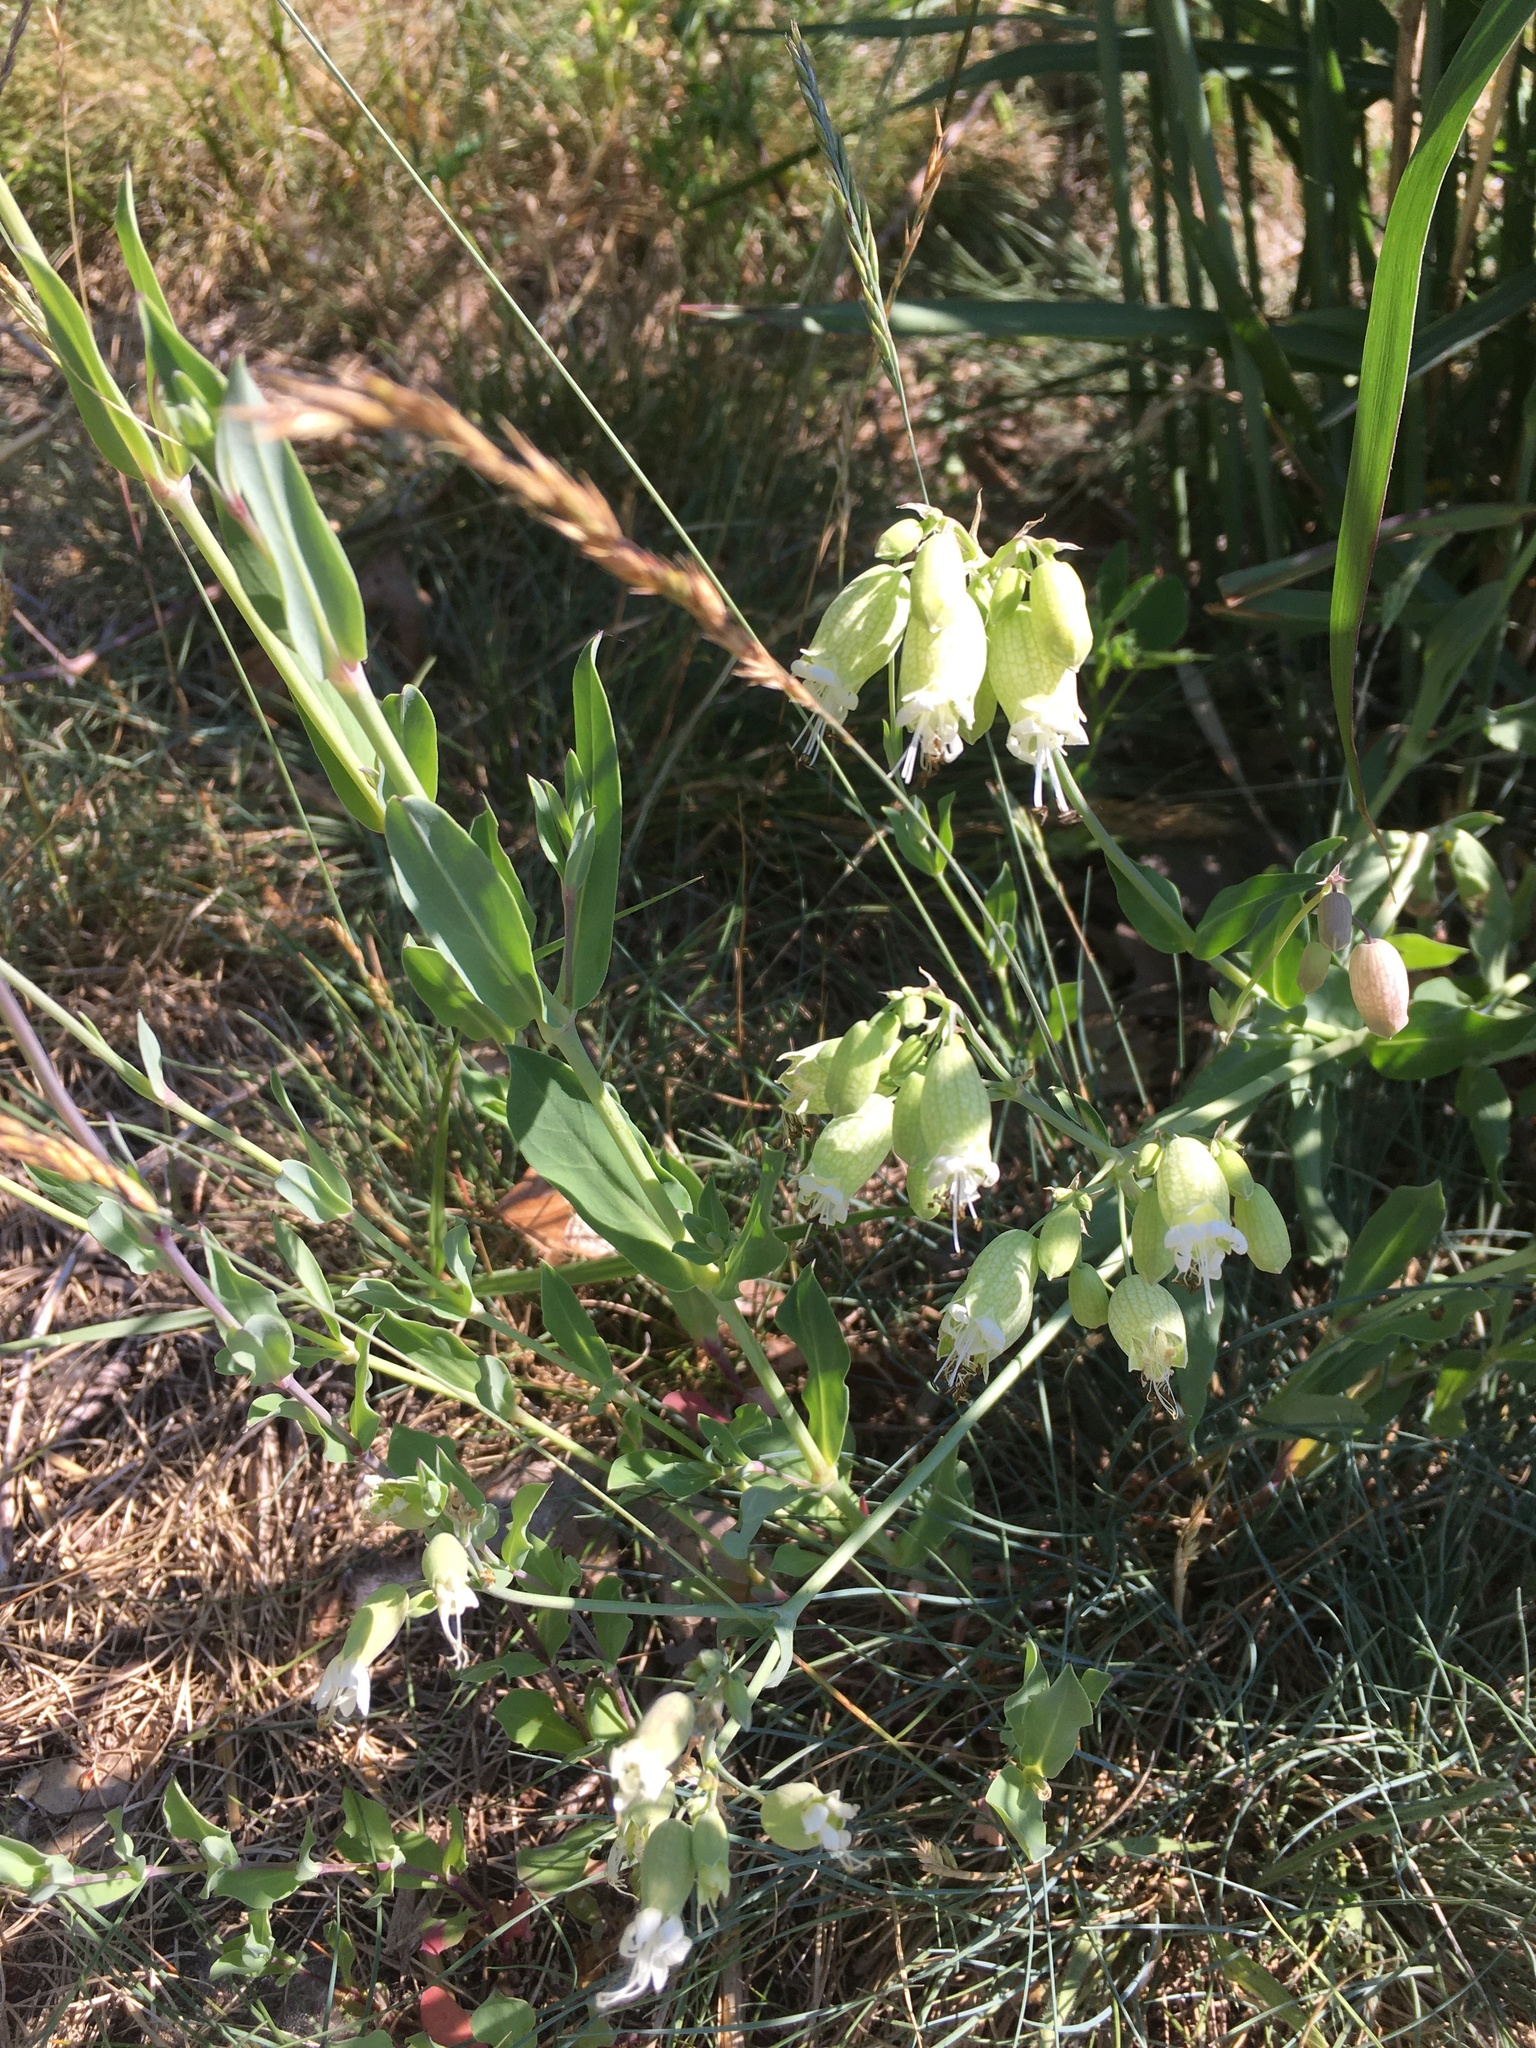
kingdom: Plantae
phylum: Tracheophyta
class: Magnoliopsida
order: Caryophyllales
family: Caryophyllaceae
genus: Silene
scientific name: Silene vulgaris
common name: Bladder campion
